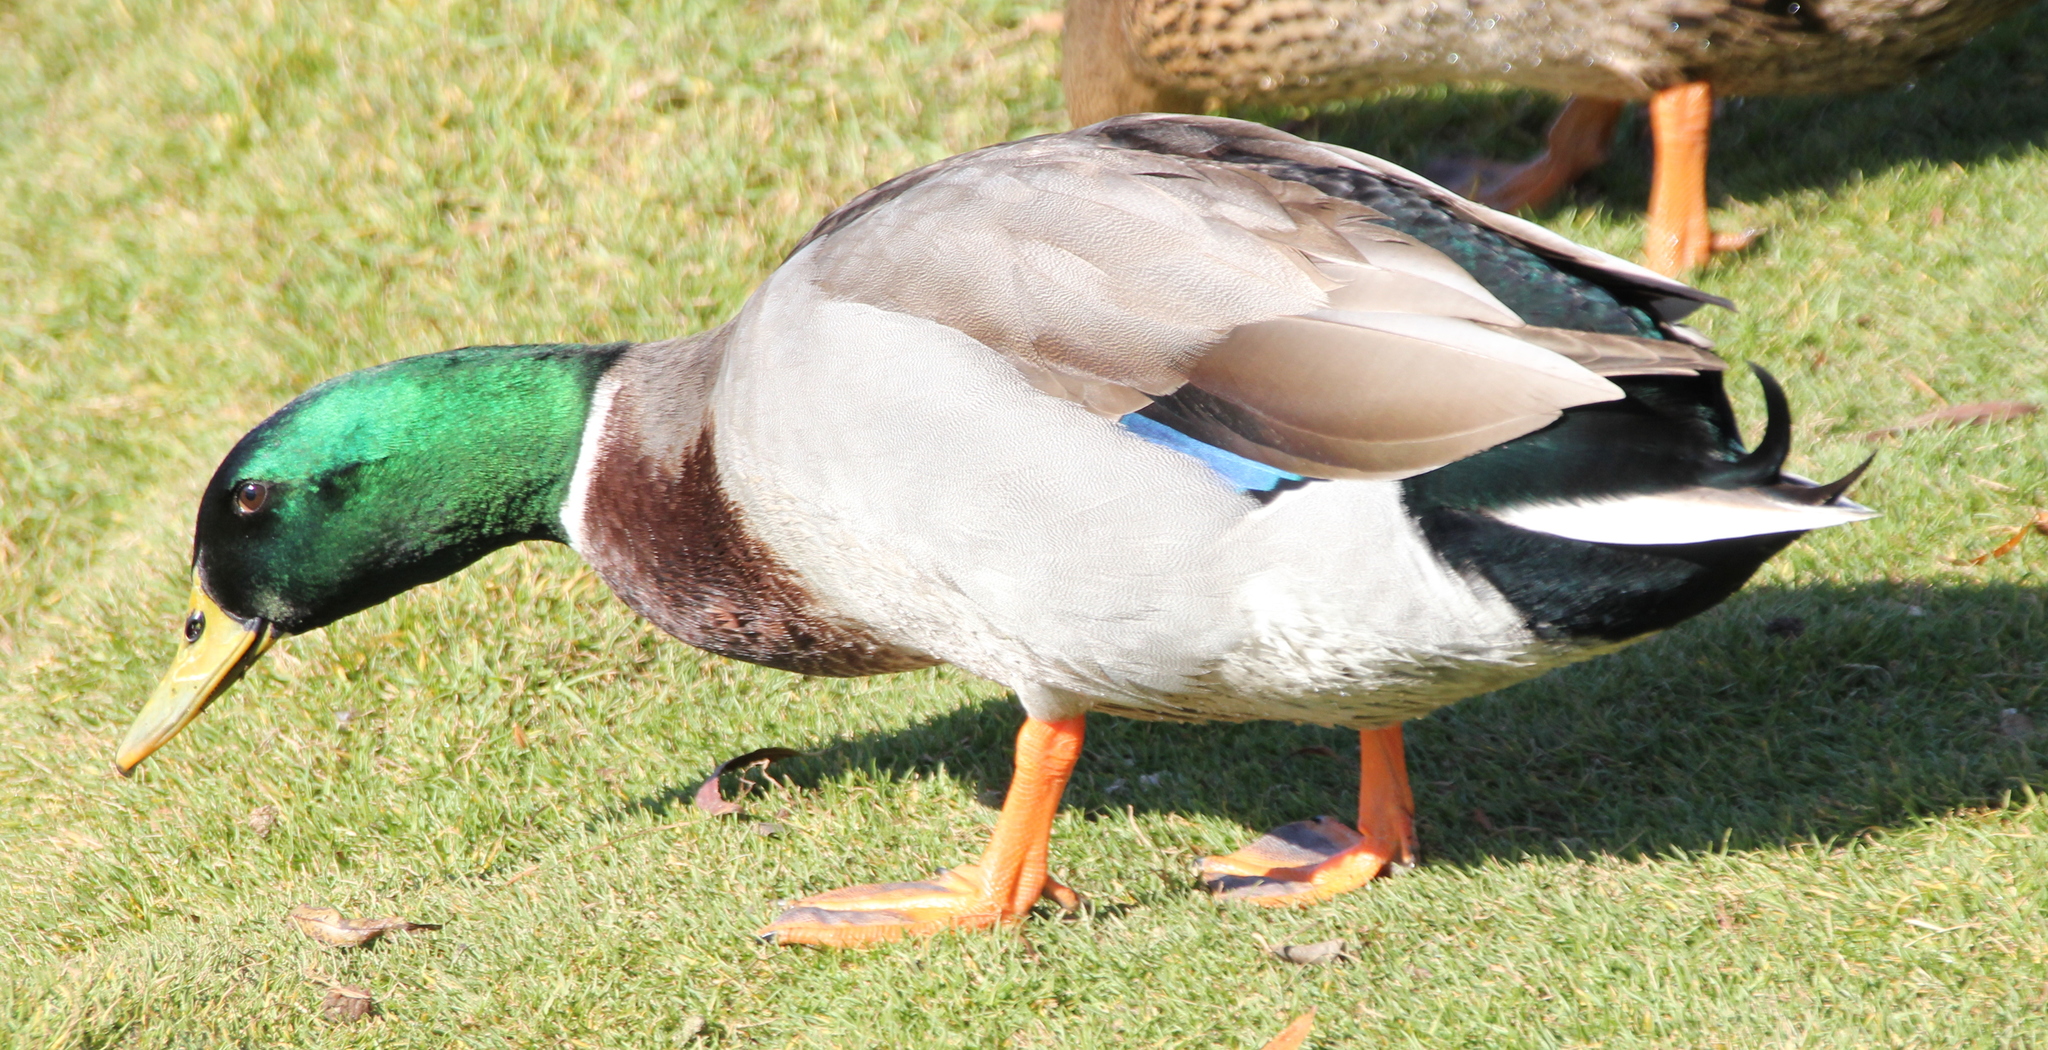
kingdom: Animalia
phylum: Chordata
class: Aves
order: Anseriformes
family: Anatidae
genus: Anas
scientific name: Anas platyrhynchos
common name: Mallard
